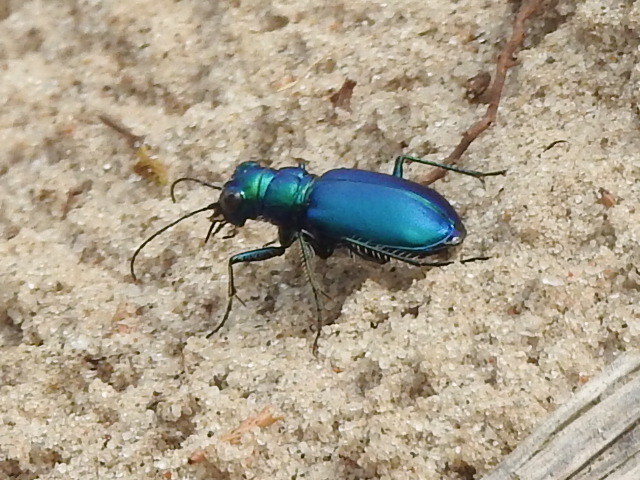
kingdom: Animalia
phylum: Arthropoda
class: Insecta
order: Coleoptera
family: Carabidae
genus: Cicindela
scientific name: Cicindela scutellaris
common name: Festive tiger beetle
